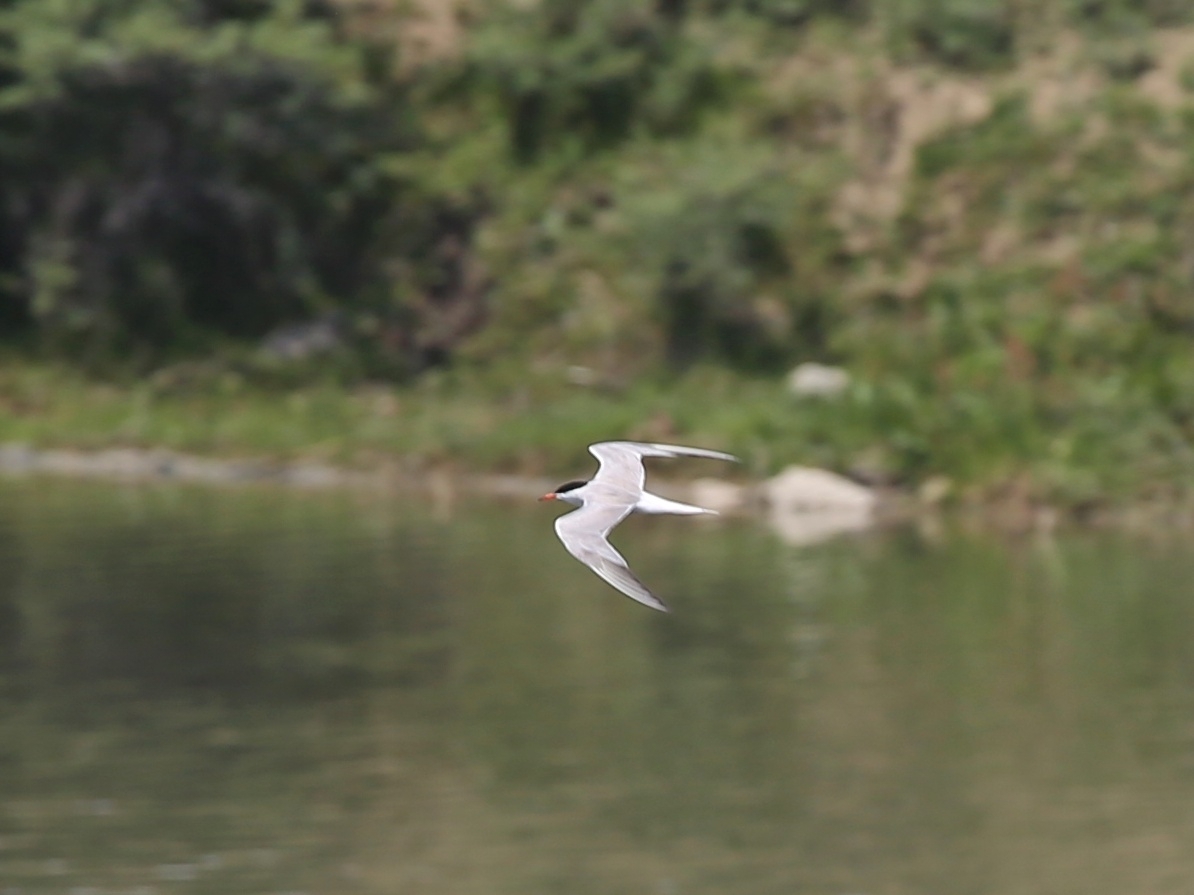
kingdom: Animalia
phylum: Chordata
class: Aves
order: Charadriiformes
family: Laridae
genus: Sterna
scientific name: Sterna hirundo
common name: Common tern
